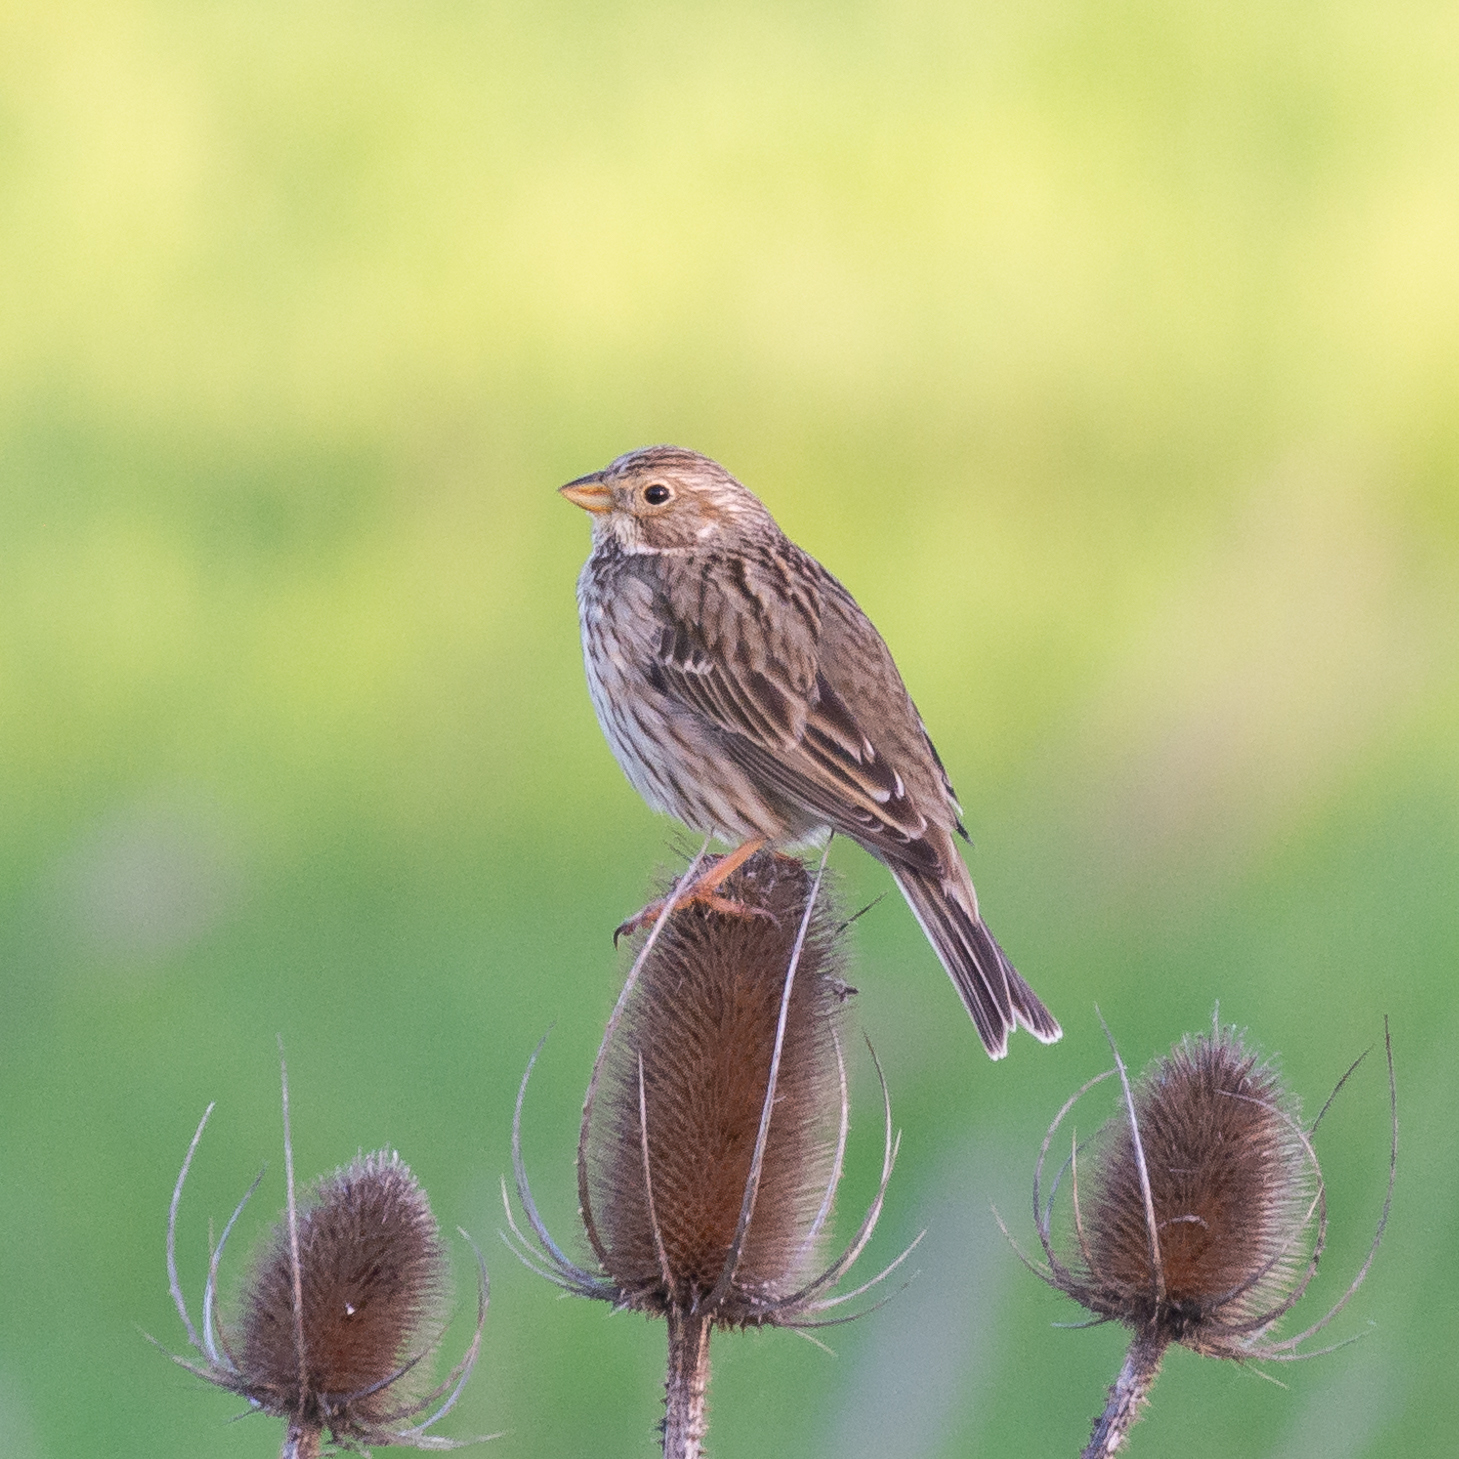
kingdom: Animalia
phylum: Chordata
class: Aves
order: Passeriformes
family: Emberizidae
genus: Emberiza
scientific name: Emberiza calandra
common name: Corn bunting
